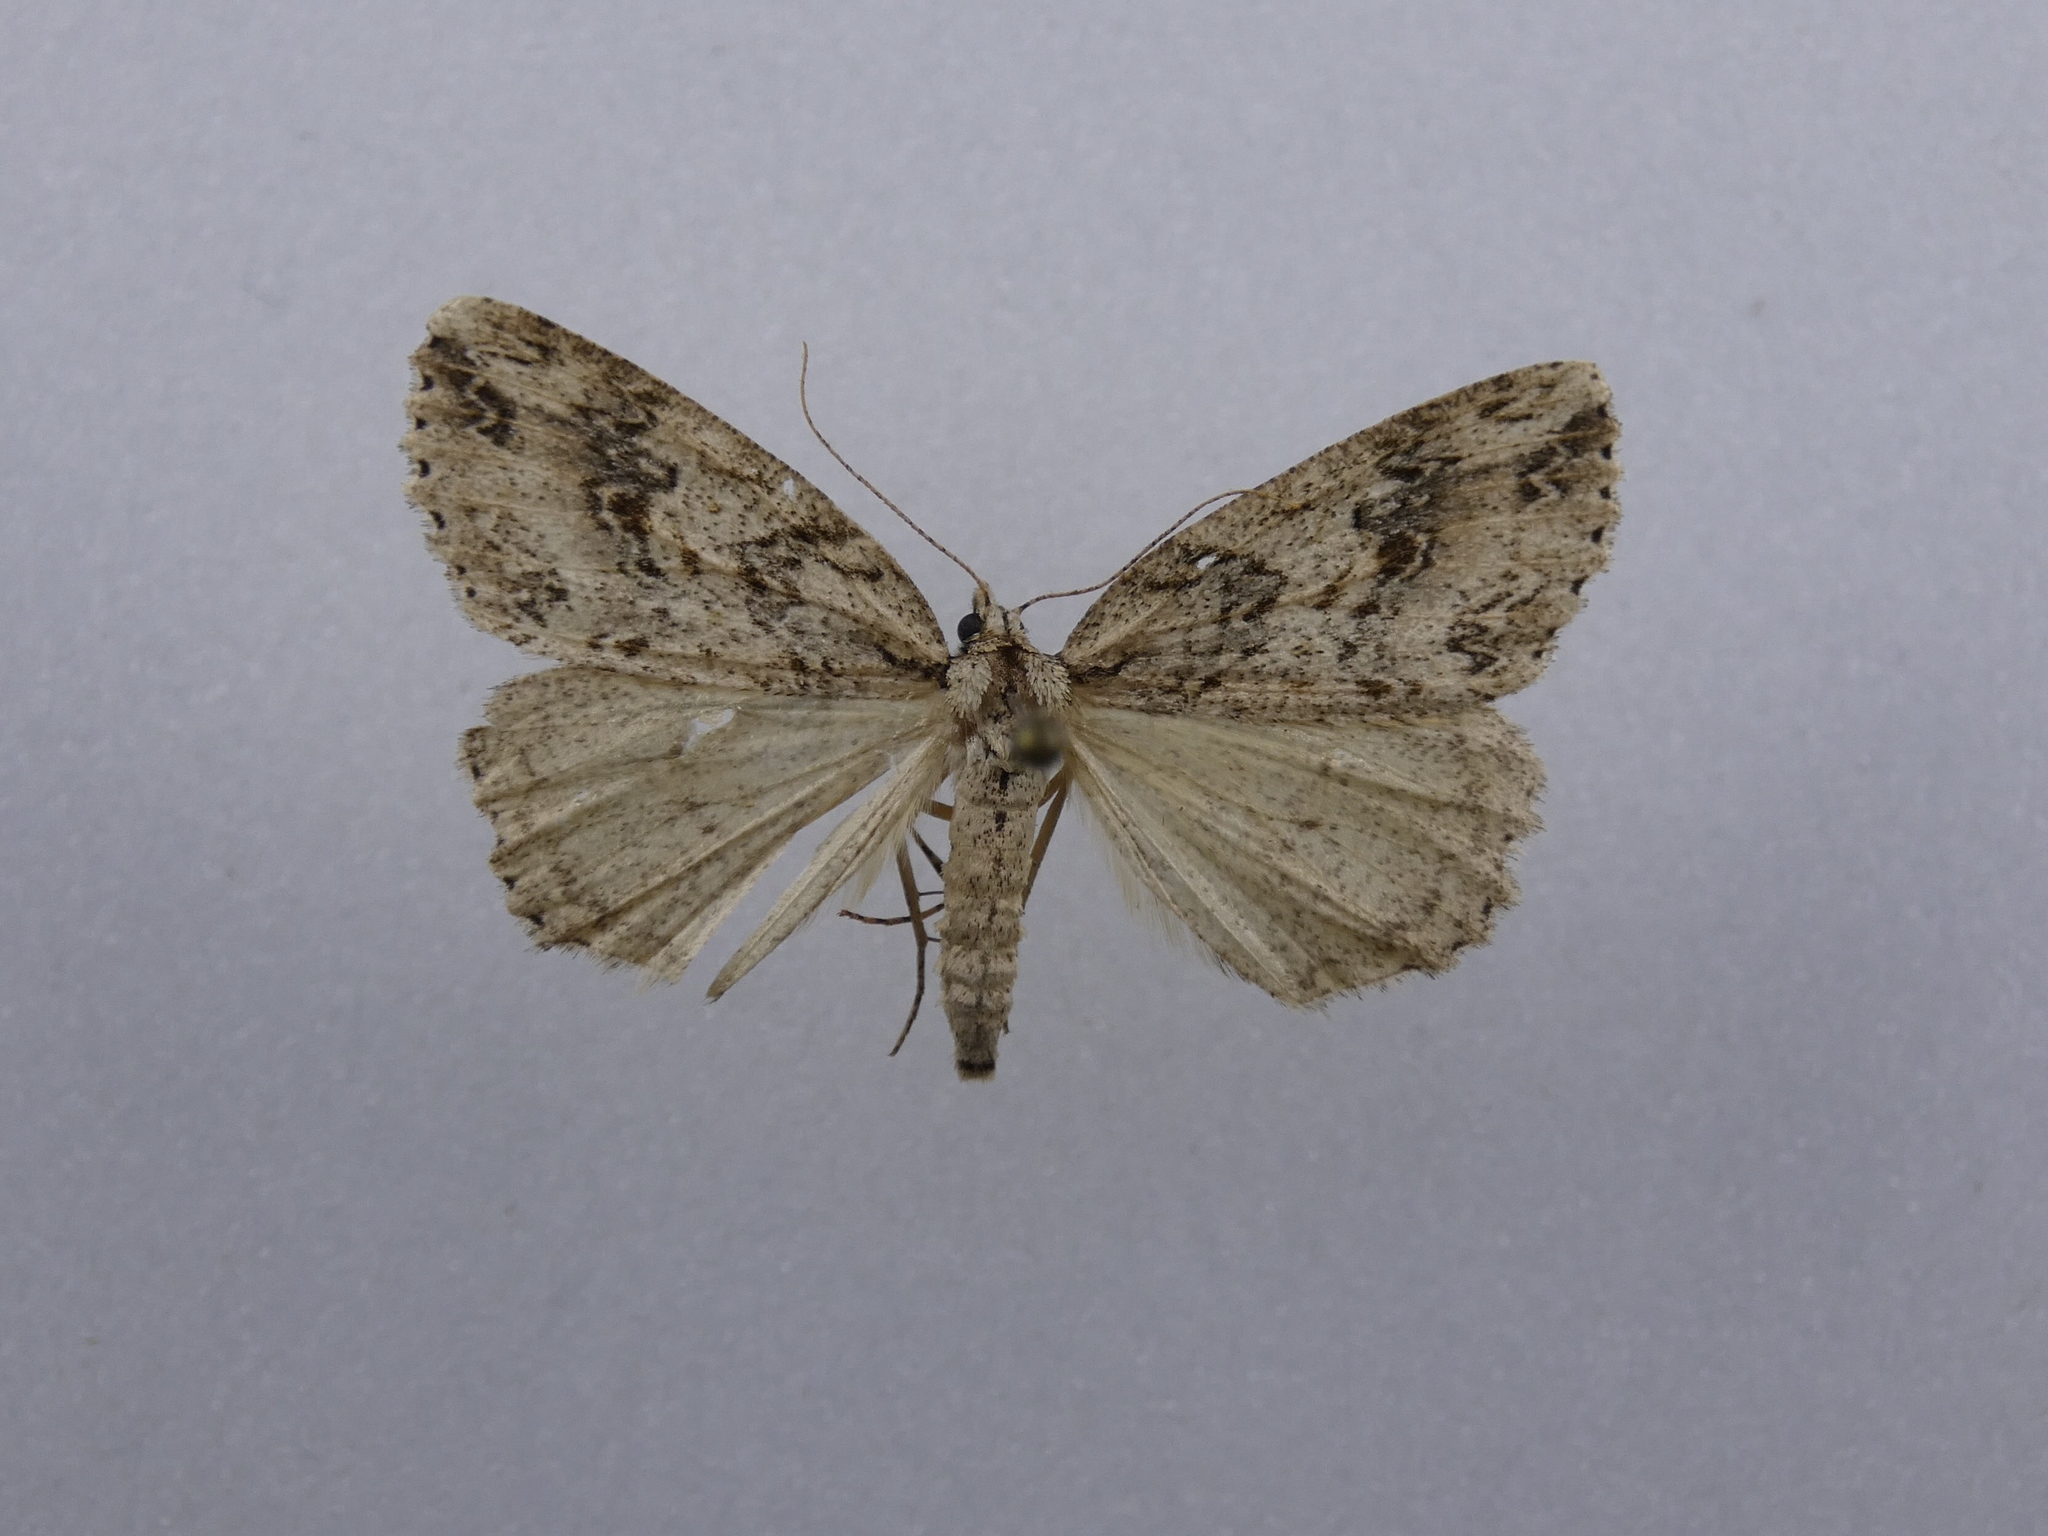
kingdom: Animalia
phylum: Arthropoda
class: Insecta
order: Lepidoptera
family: Geometridae
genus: Pseudocoremia
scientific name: Pseudocoremia rudisata
